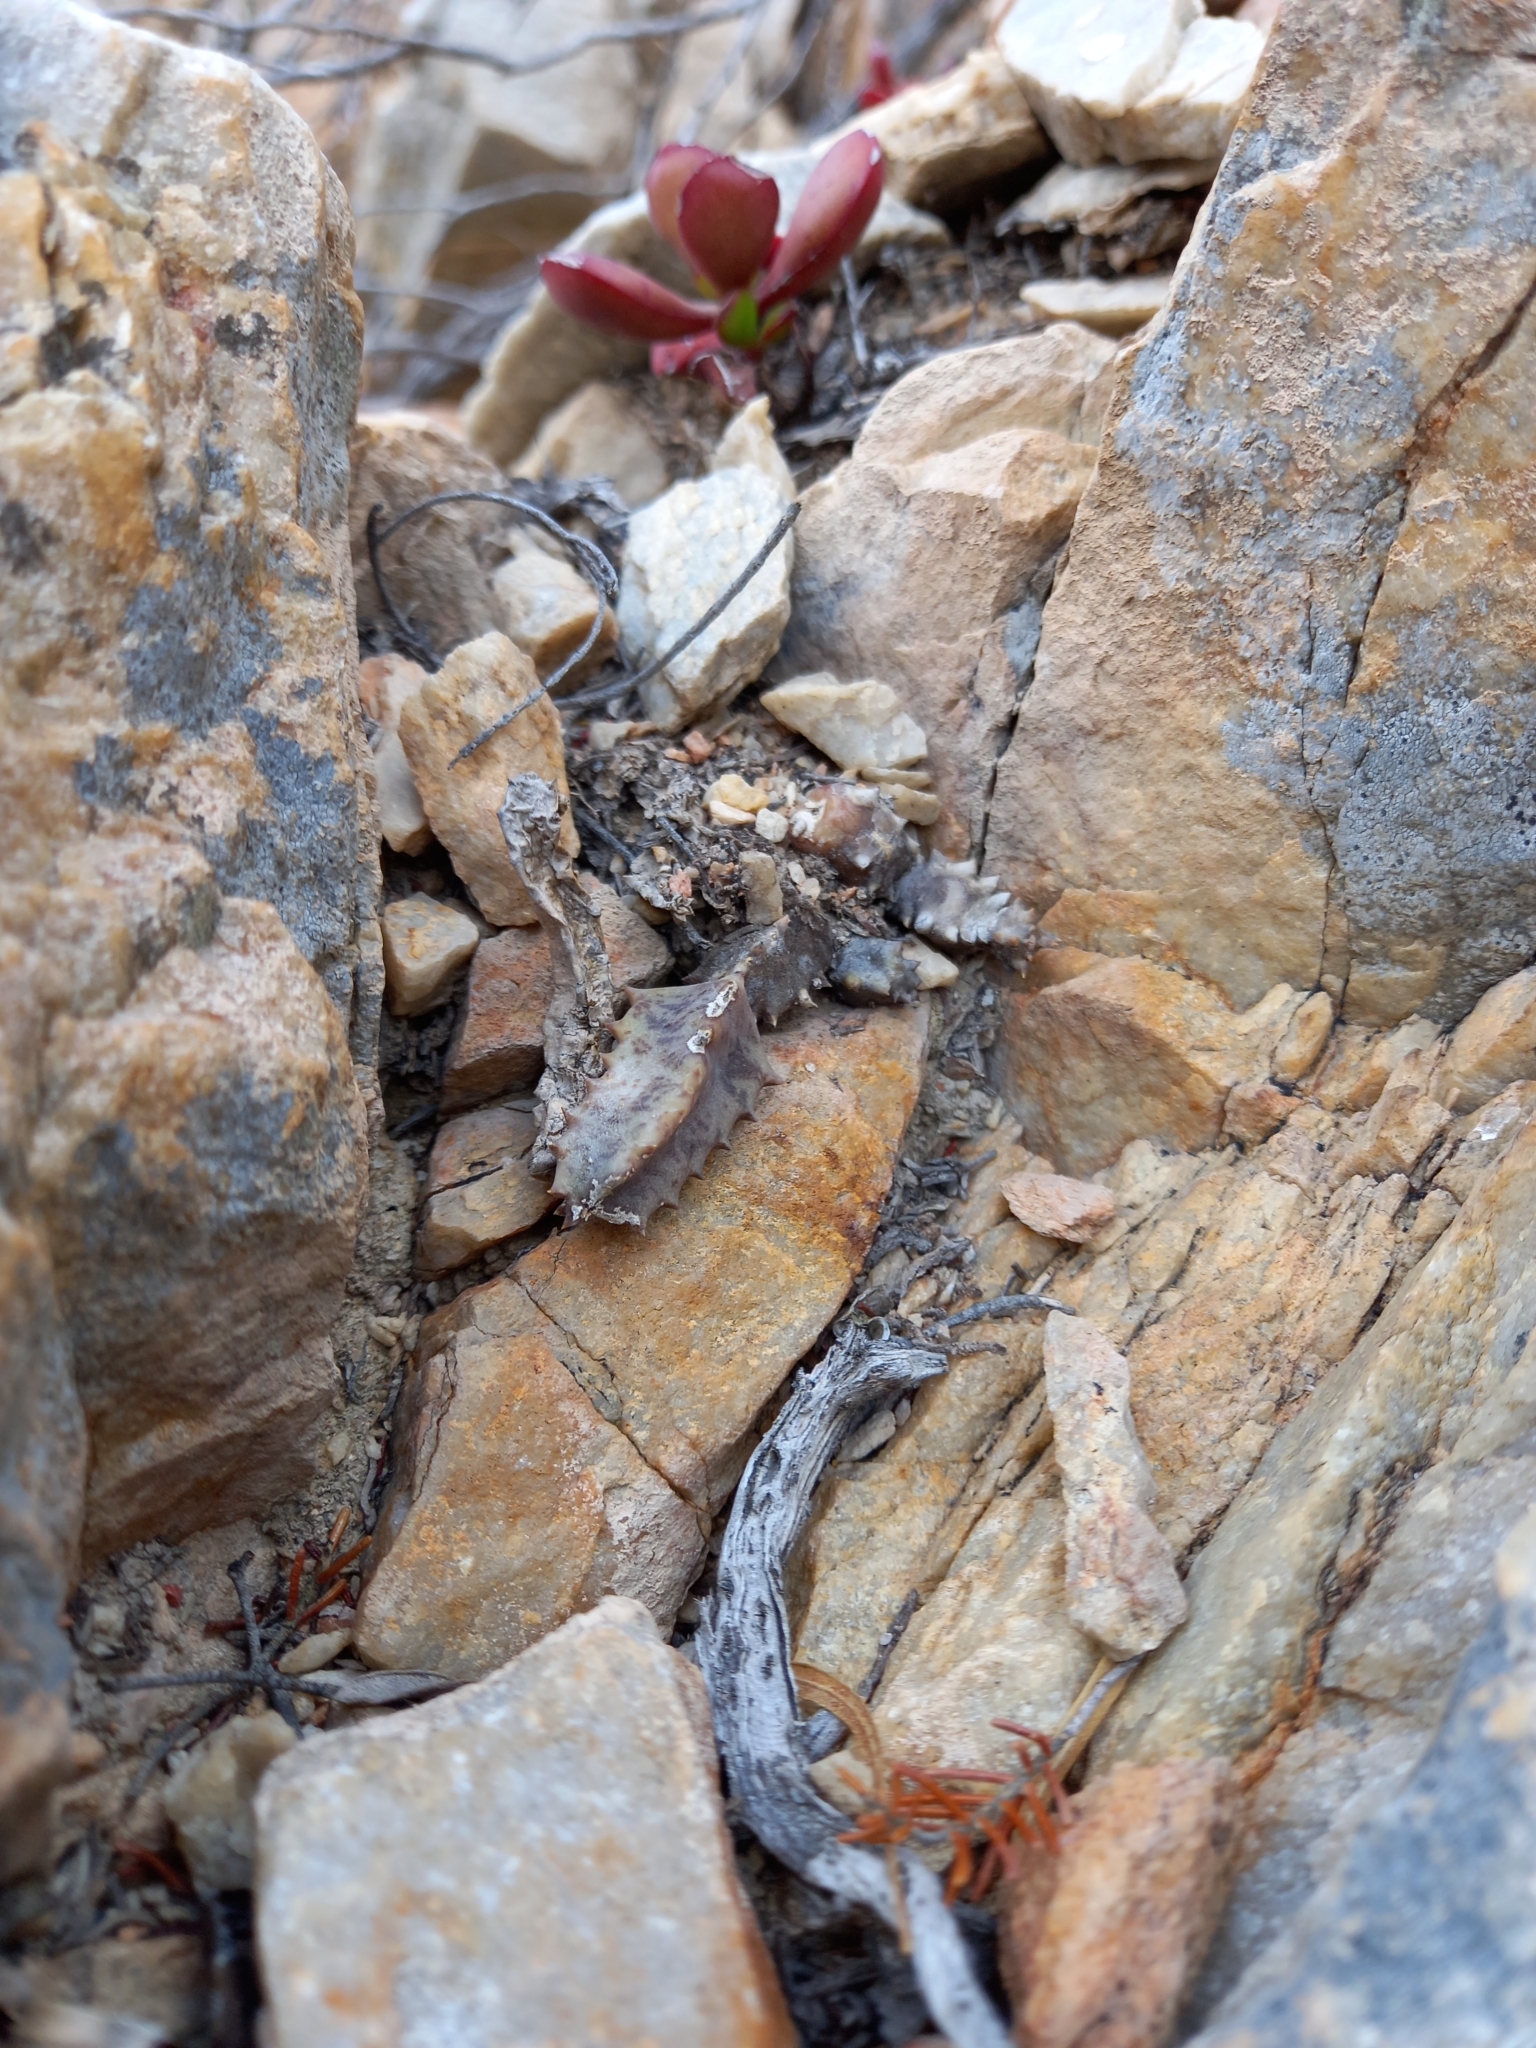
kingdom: Plantae
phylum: Tracheophyta
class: Magnoliopsida
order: Gentianales
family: Apocynaceae
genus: Ceropegia
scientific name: Ceropegia tulipiflora
